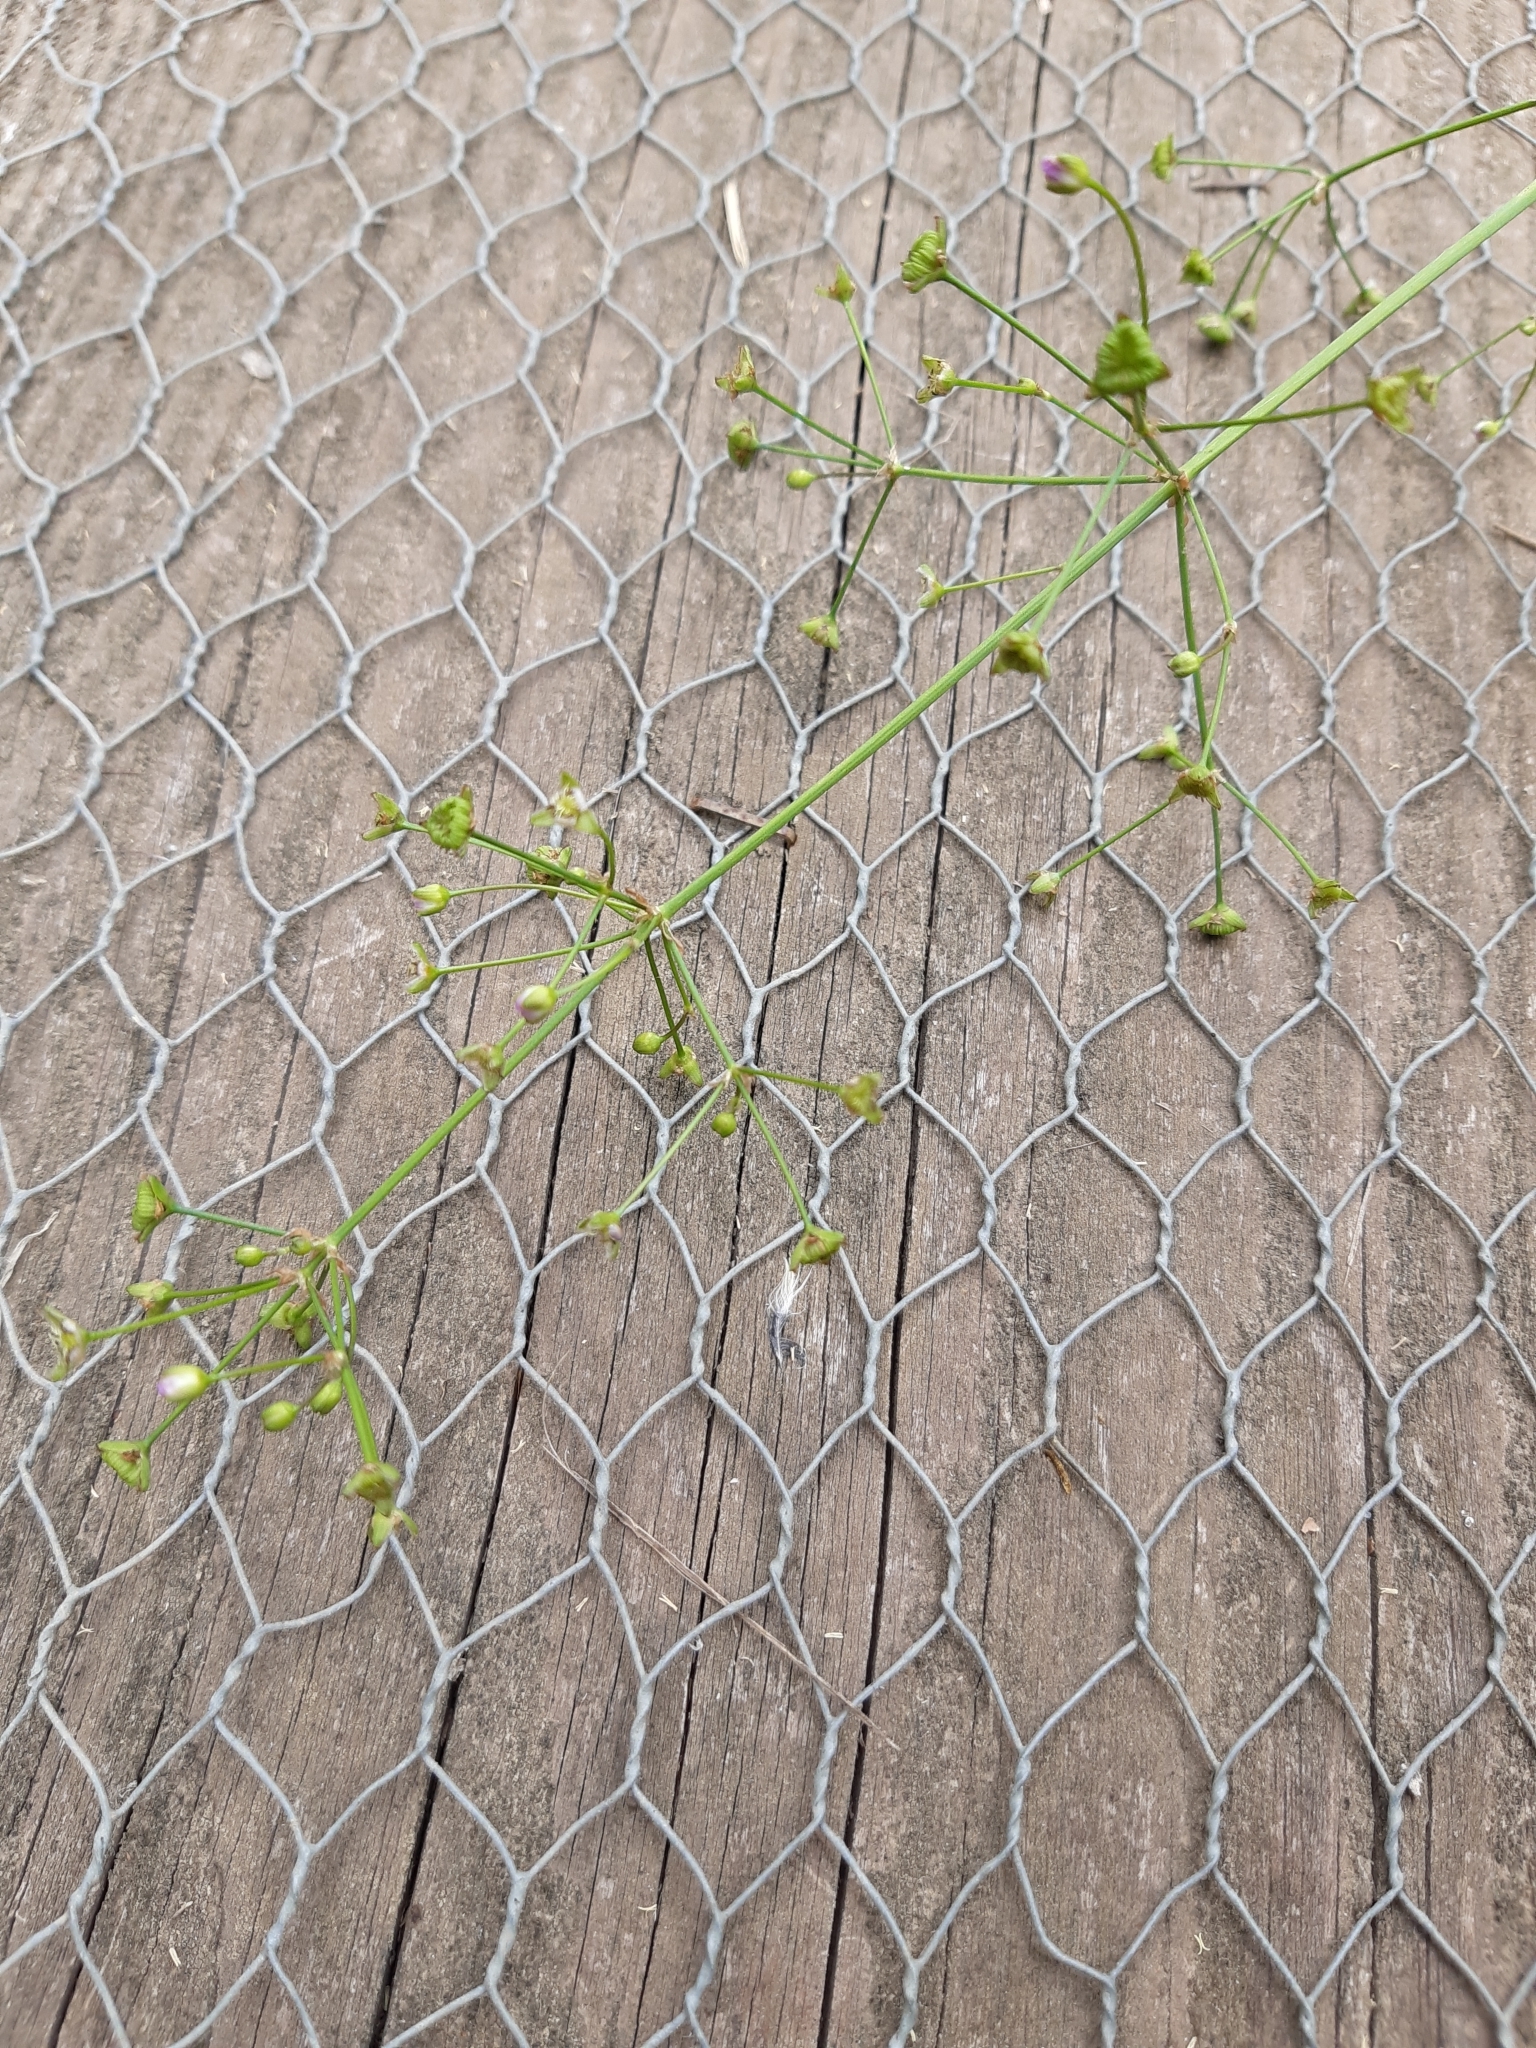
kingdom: Plantae
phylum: Tracheophyta
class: Liliopsida
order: Alismatales
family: Alismataceae
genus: Alisma
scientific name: Alisma plantago-aquatica
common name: Water-plantain
